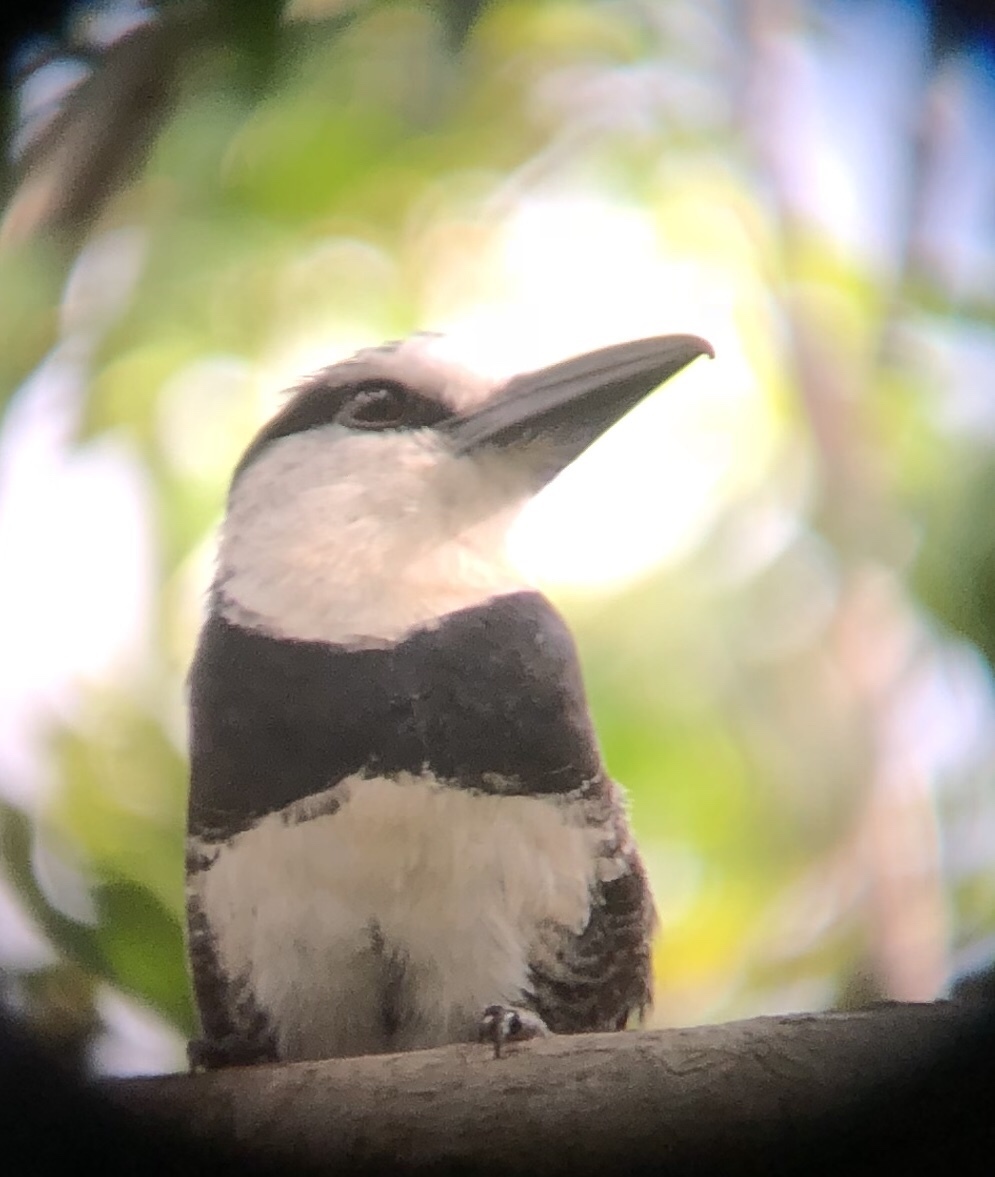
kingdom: Animalia
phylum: Chordata
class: Aves
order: Piciformes
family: Bucconidae
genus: Notharchus
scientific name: Notharchus hyperrhynchus
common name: White-necked puffbird
